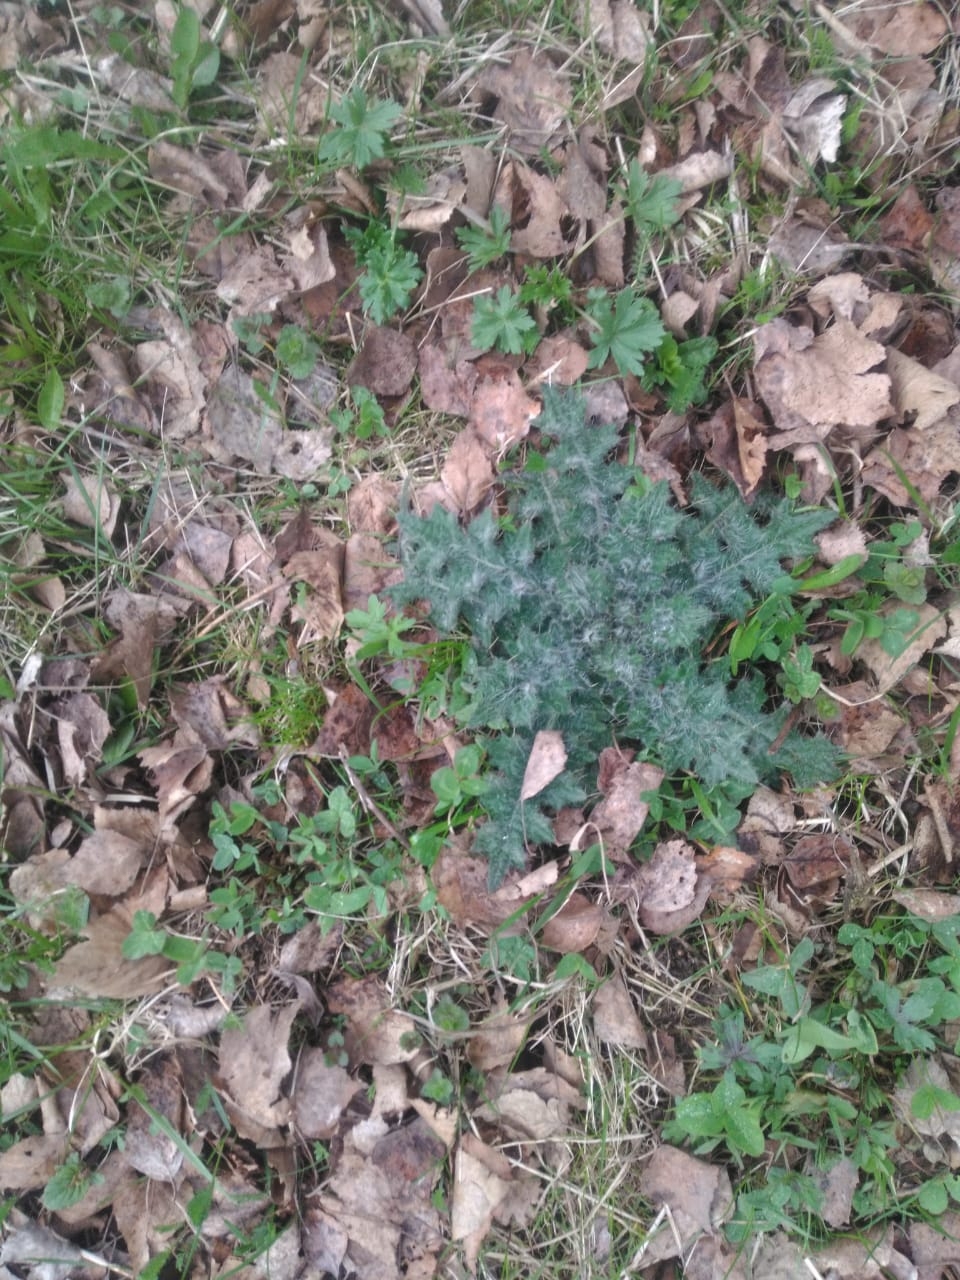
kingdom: Plantae
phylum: Tracheophyta
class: Magnoliopsida
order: Asterales
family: Asteraceae
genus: Cirsium
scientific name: Cirsium vulgare
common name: Bull thistle
